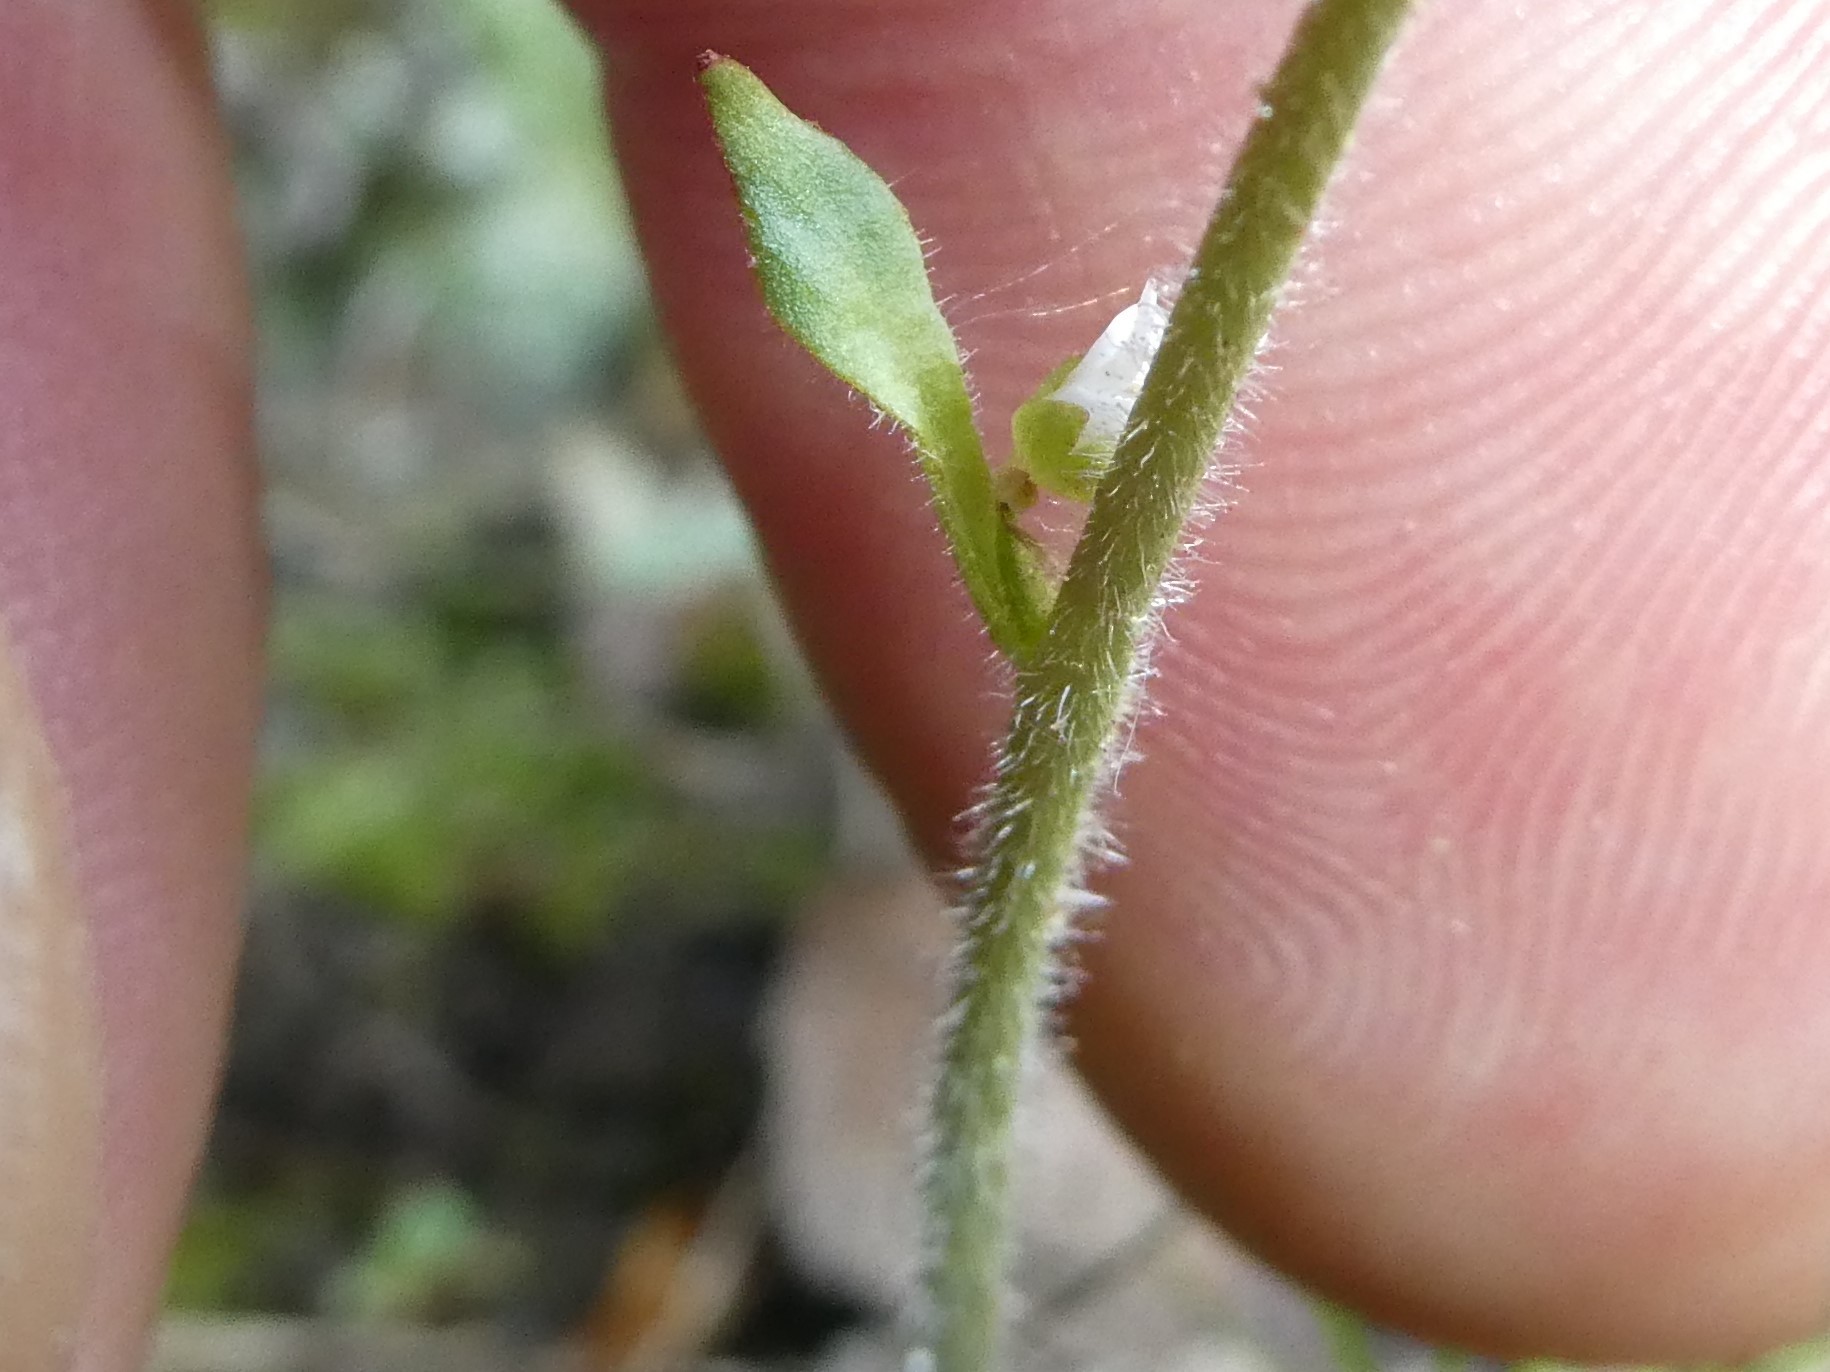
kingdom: Plantae
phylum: Tracheophyta
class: Magnoliopsida
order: Saxifragales
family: Saxifragaceae
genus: Micranthes
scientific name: Micranthes virginiensis
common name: Early saxifrage
